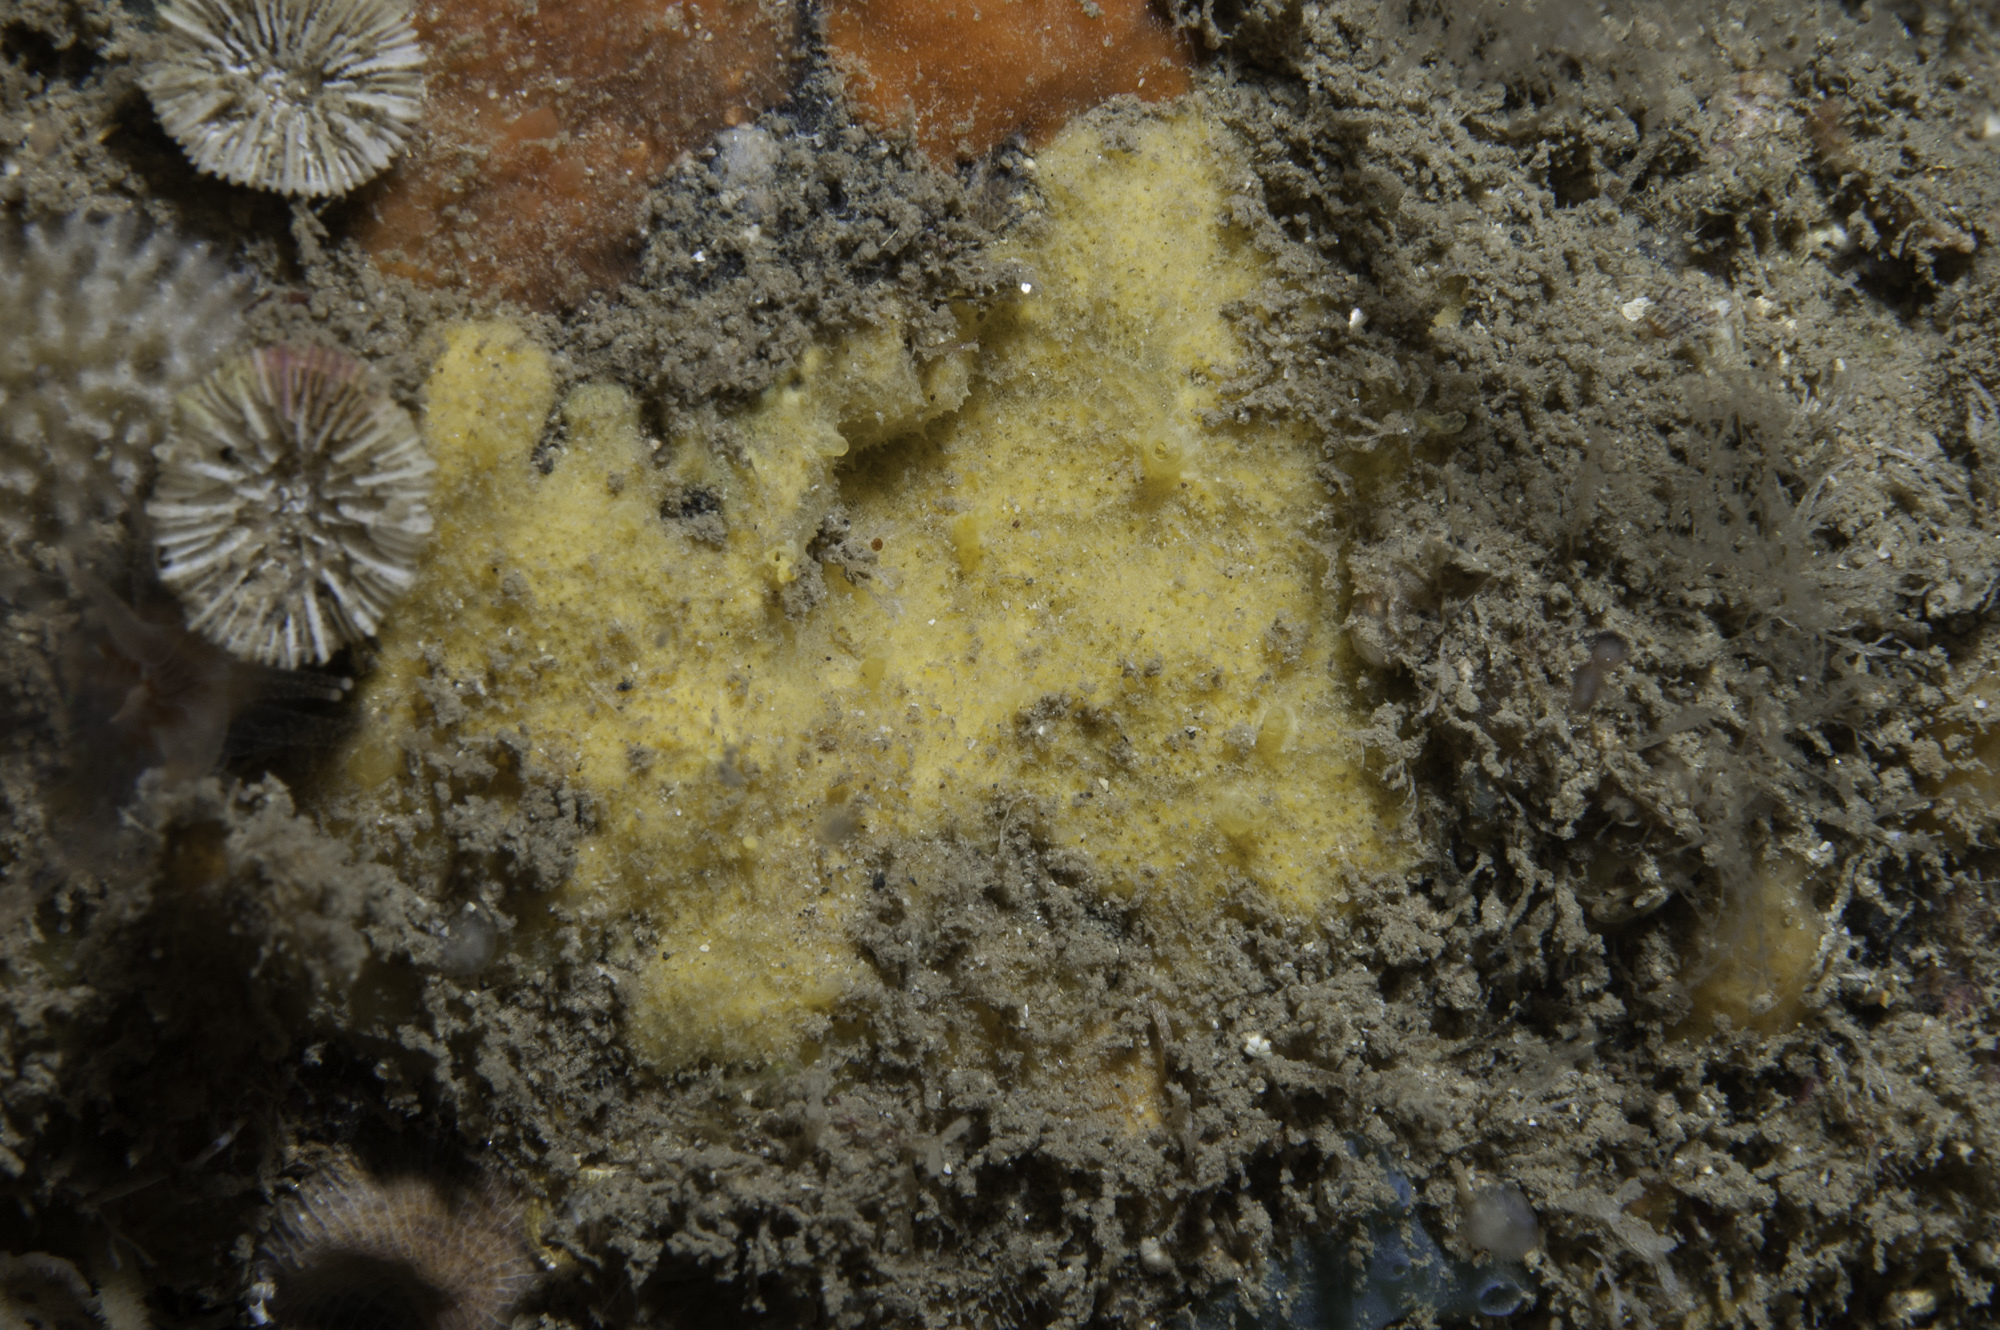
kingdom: Animalia
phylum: Porifera
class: Demospongiae
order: Agelasida
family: Hymerhabdiidae
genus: Hymerhabdia
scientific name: Hymerhabdia typica
